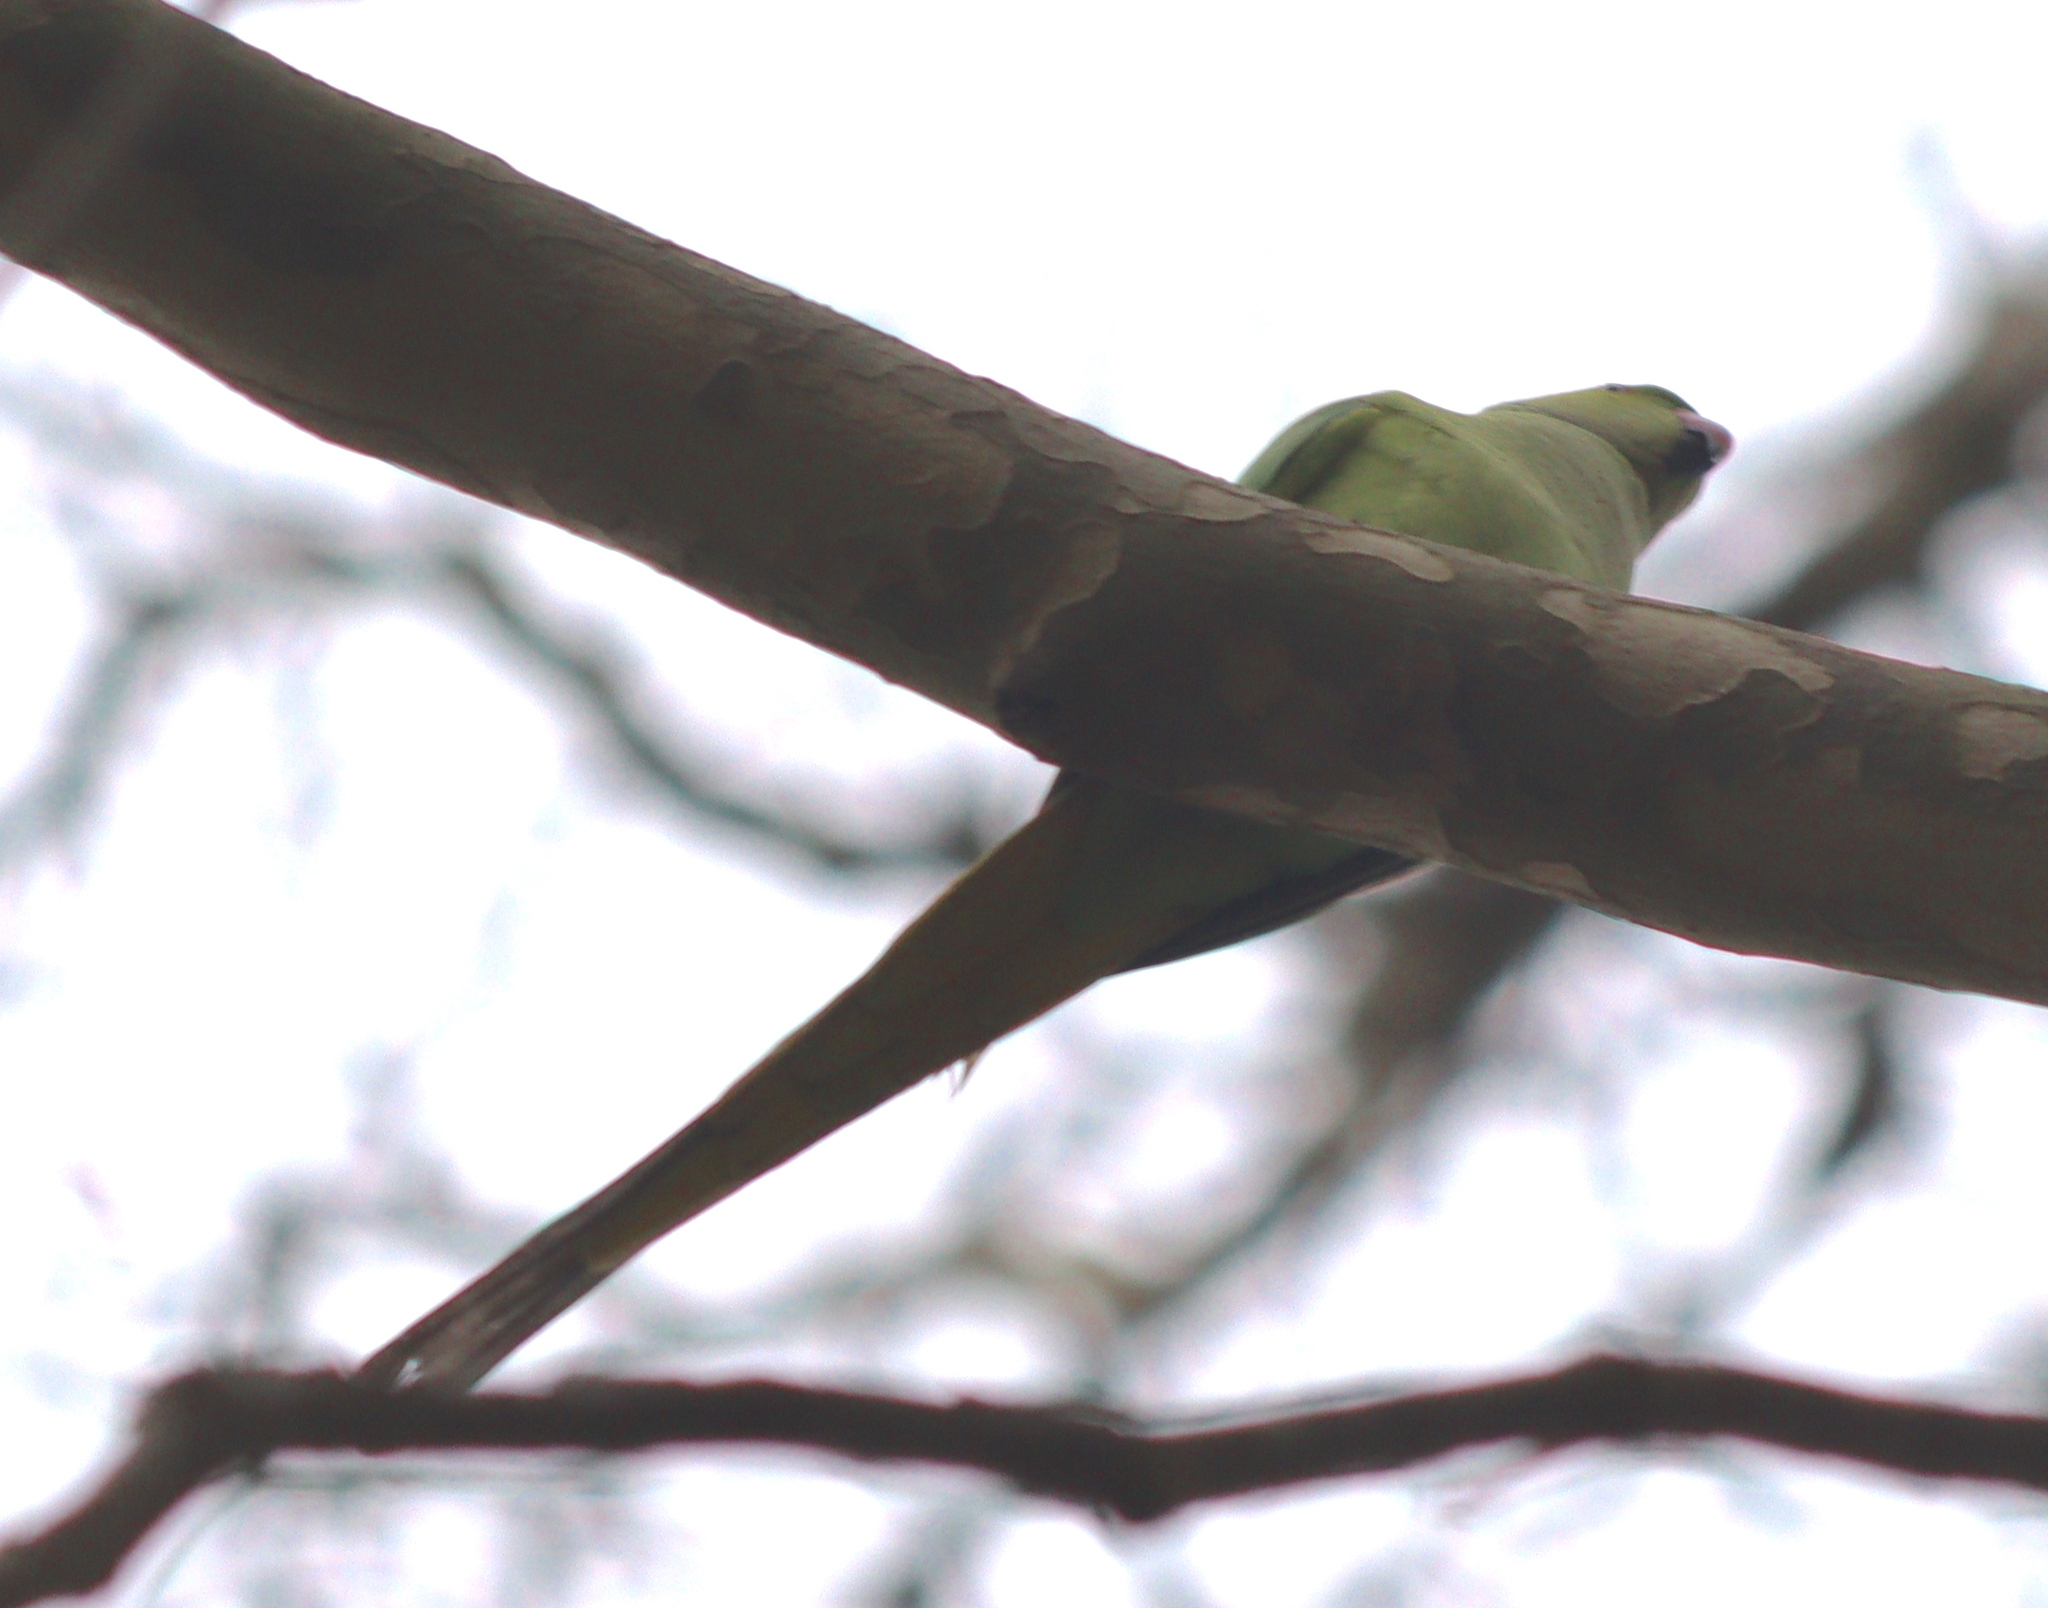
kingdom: Animalia
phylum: Chordata
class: Aves
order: Psittaciformes
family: Psittacidae
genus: Psittacula
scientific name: Psittacula krameri
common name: Rose-ringed parakeet
